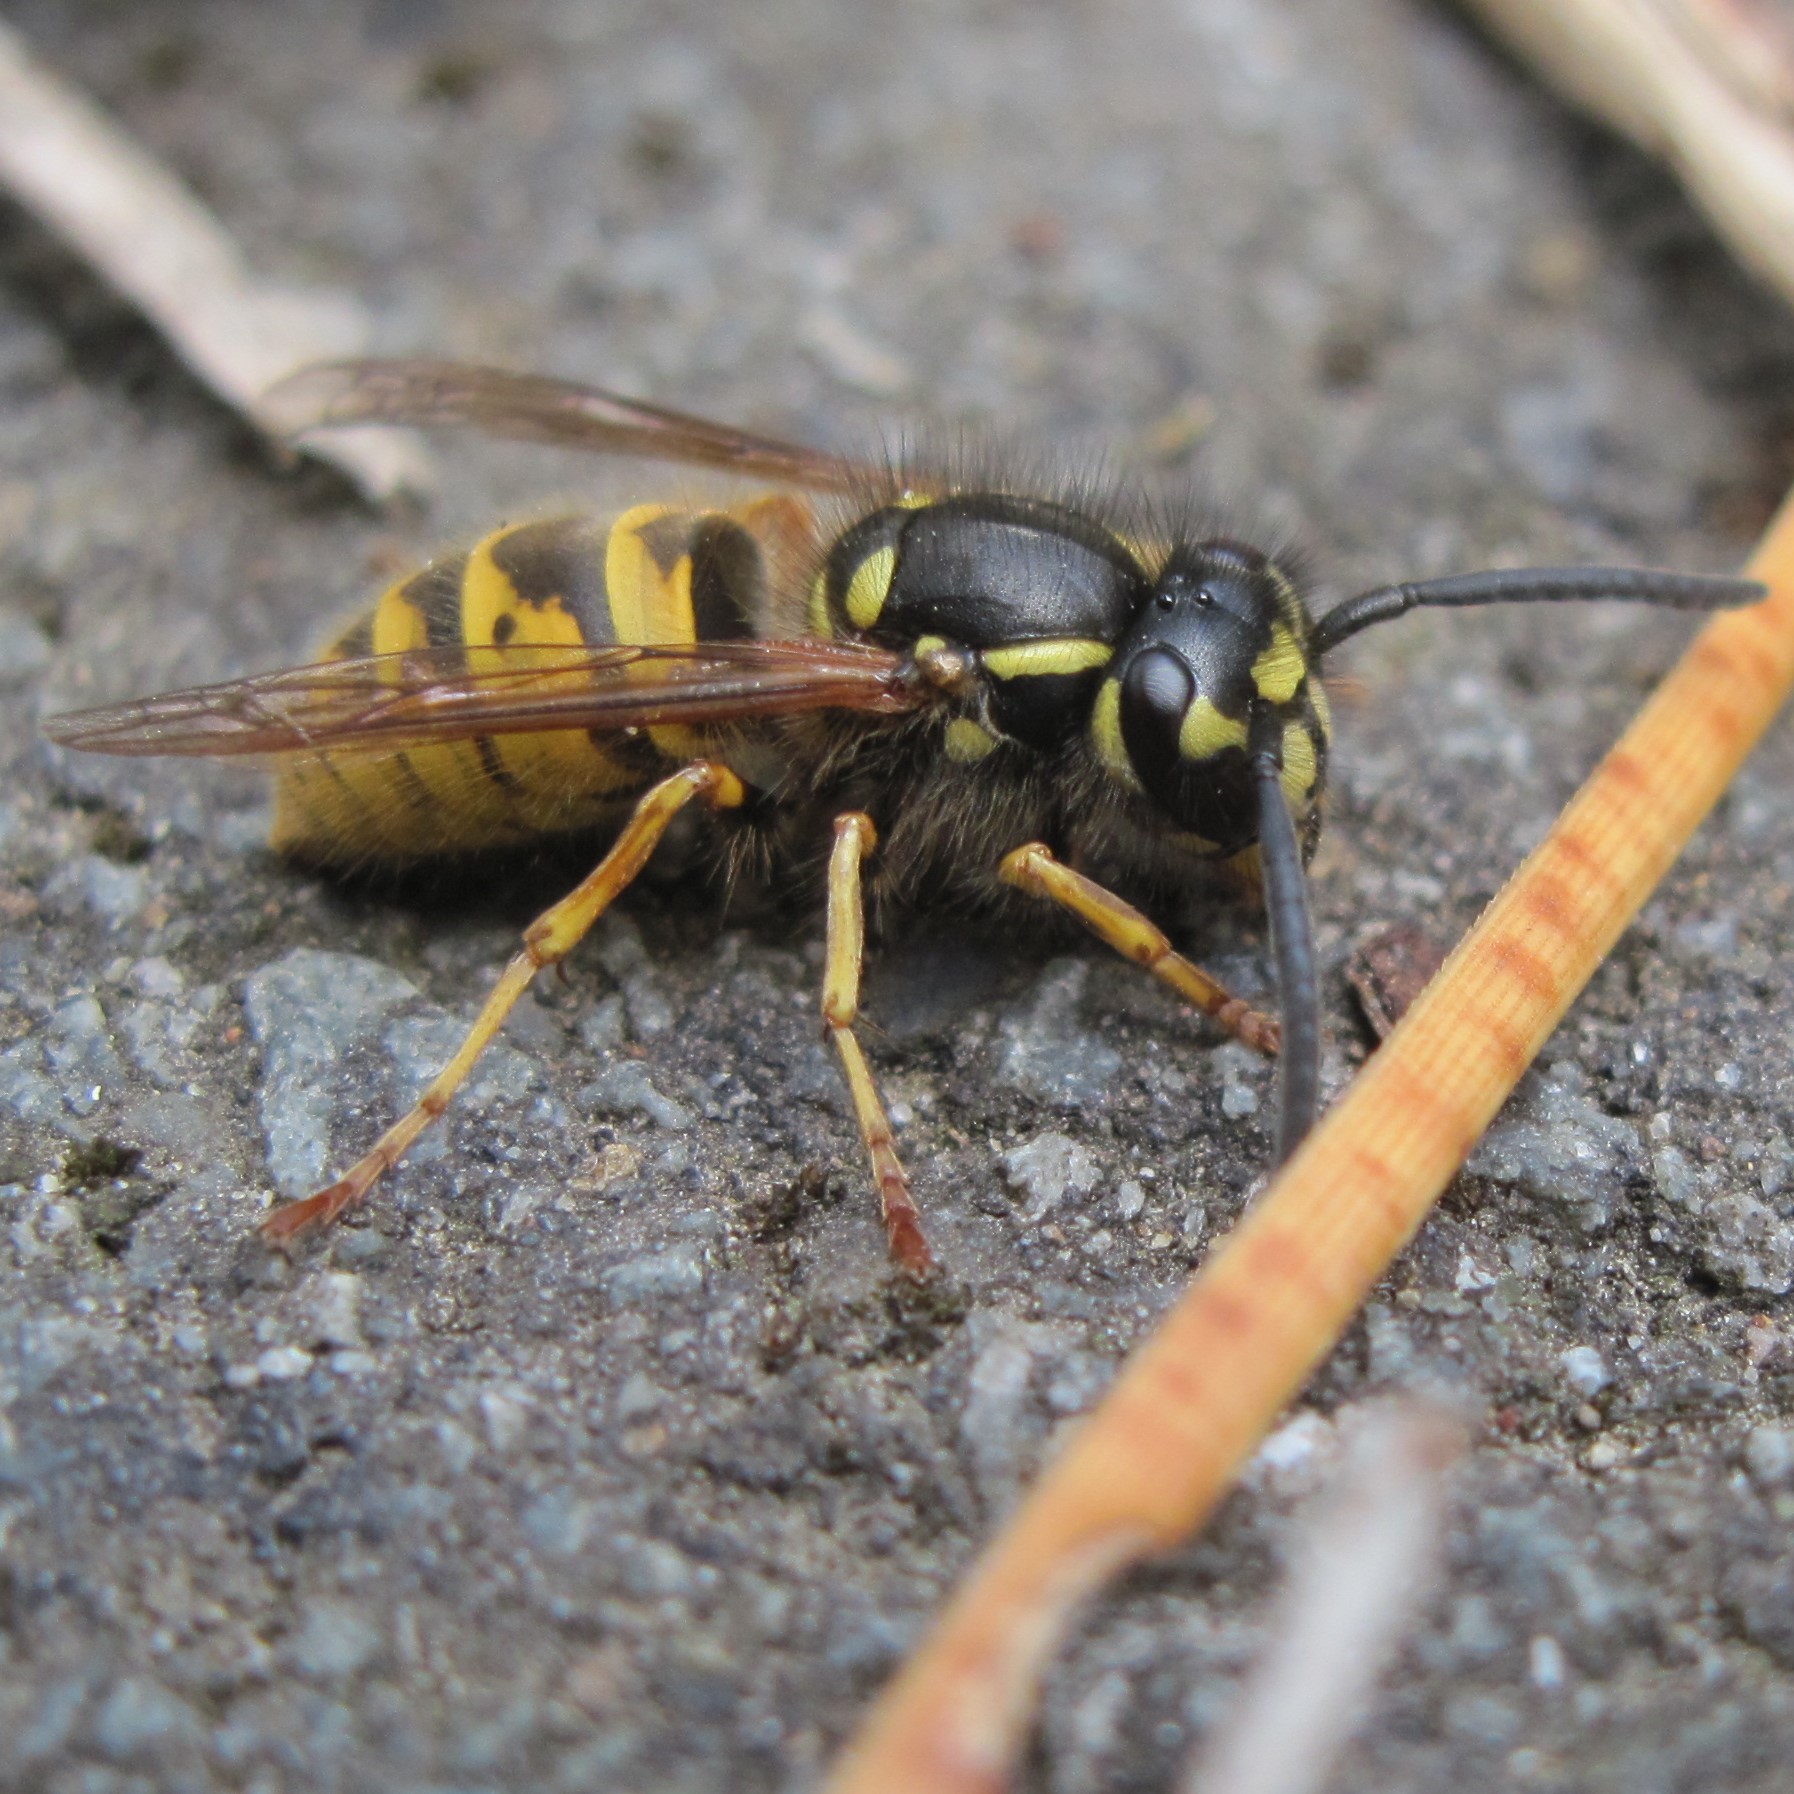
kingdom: Animalia
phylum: Arthropoda
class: Insecta
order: Hymenoptera
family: Vespidae
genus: Vespula
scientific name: Vespula vulgaris
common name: Common wasp
